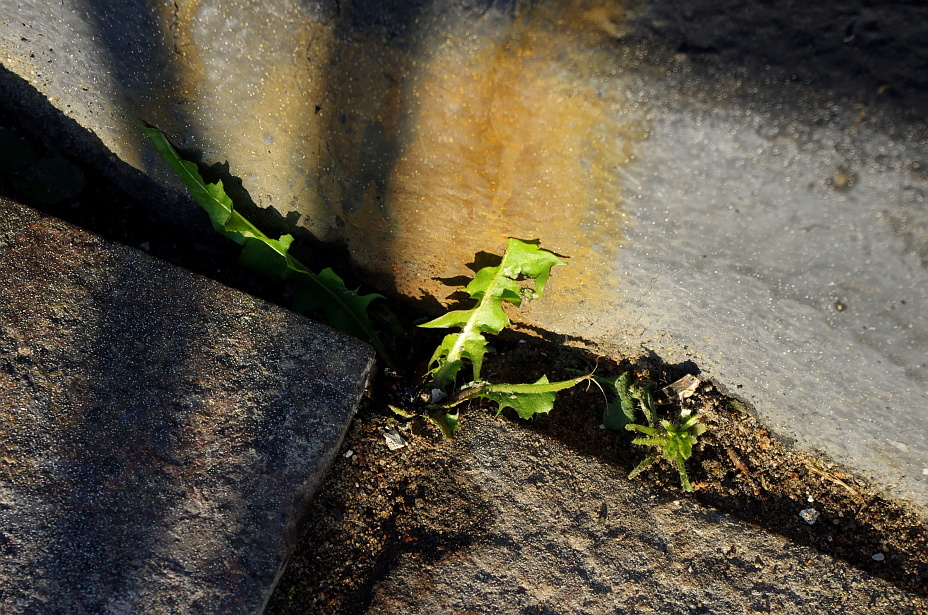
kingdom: Plantae
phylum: Tracheophyta
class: Magnoliopsida
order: Asterales
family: Asteraceae
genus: Taraxacum
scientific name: Taraxacum officinale
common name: Common dandelion
